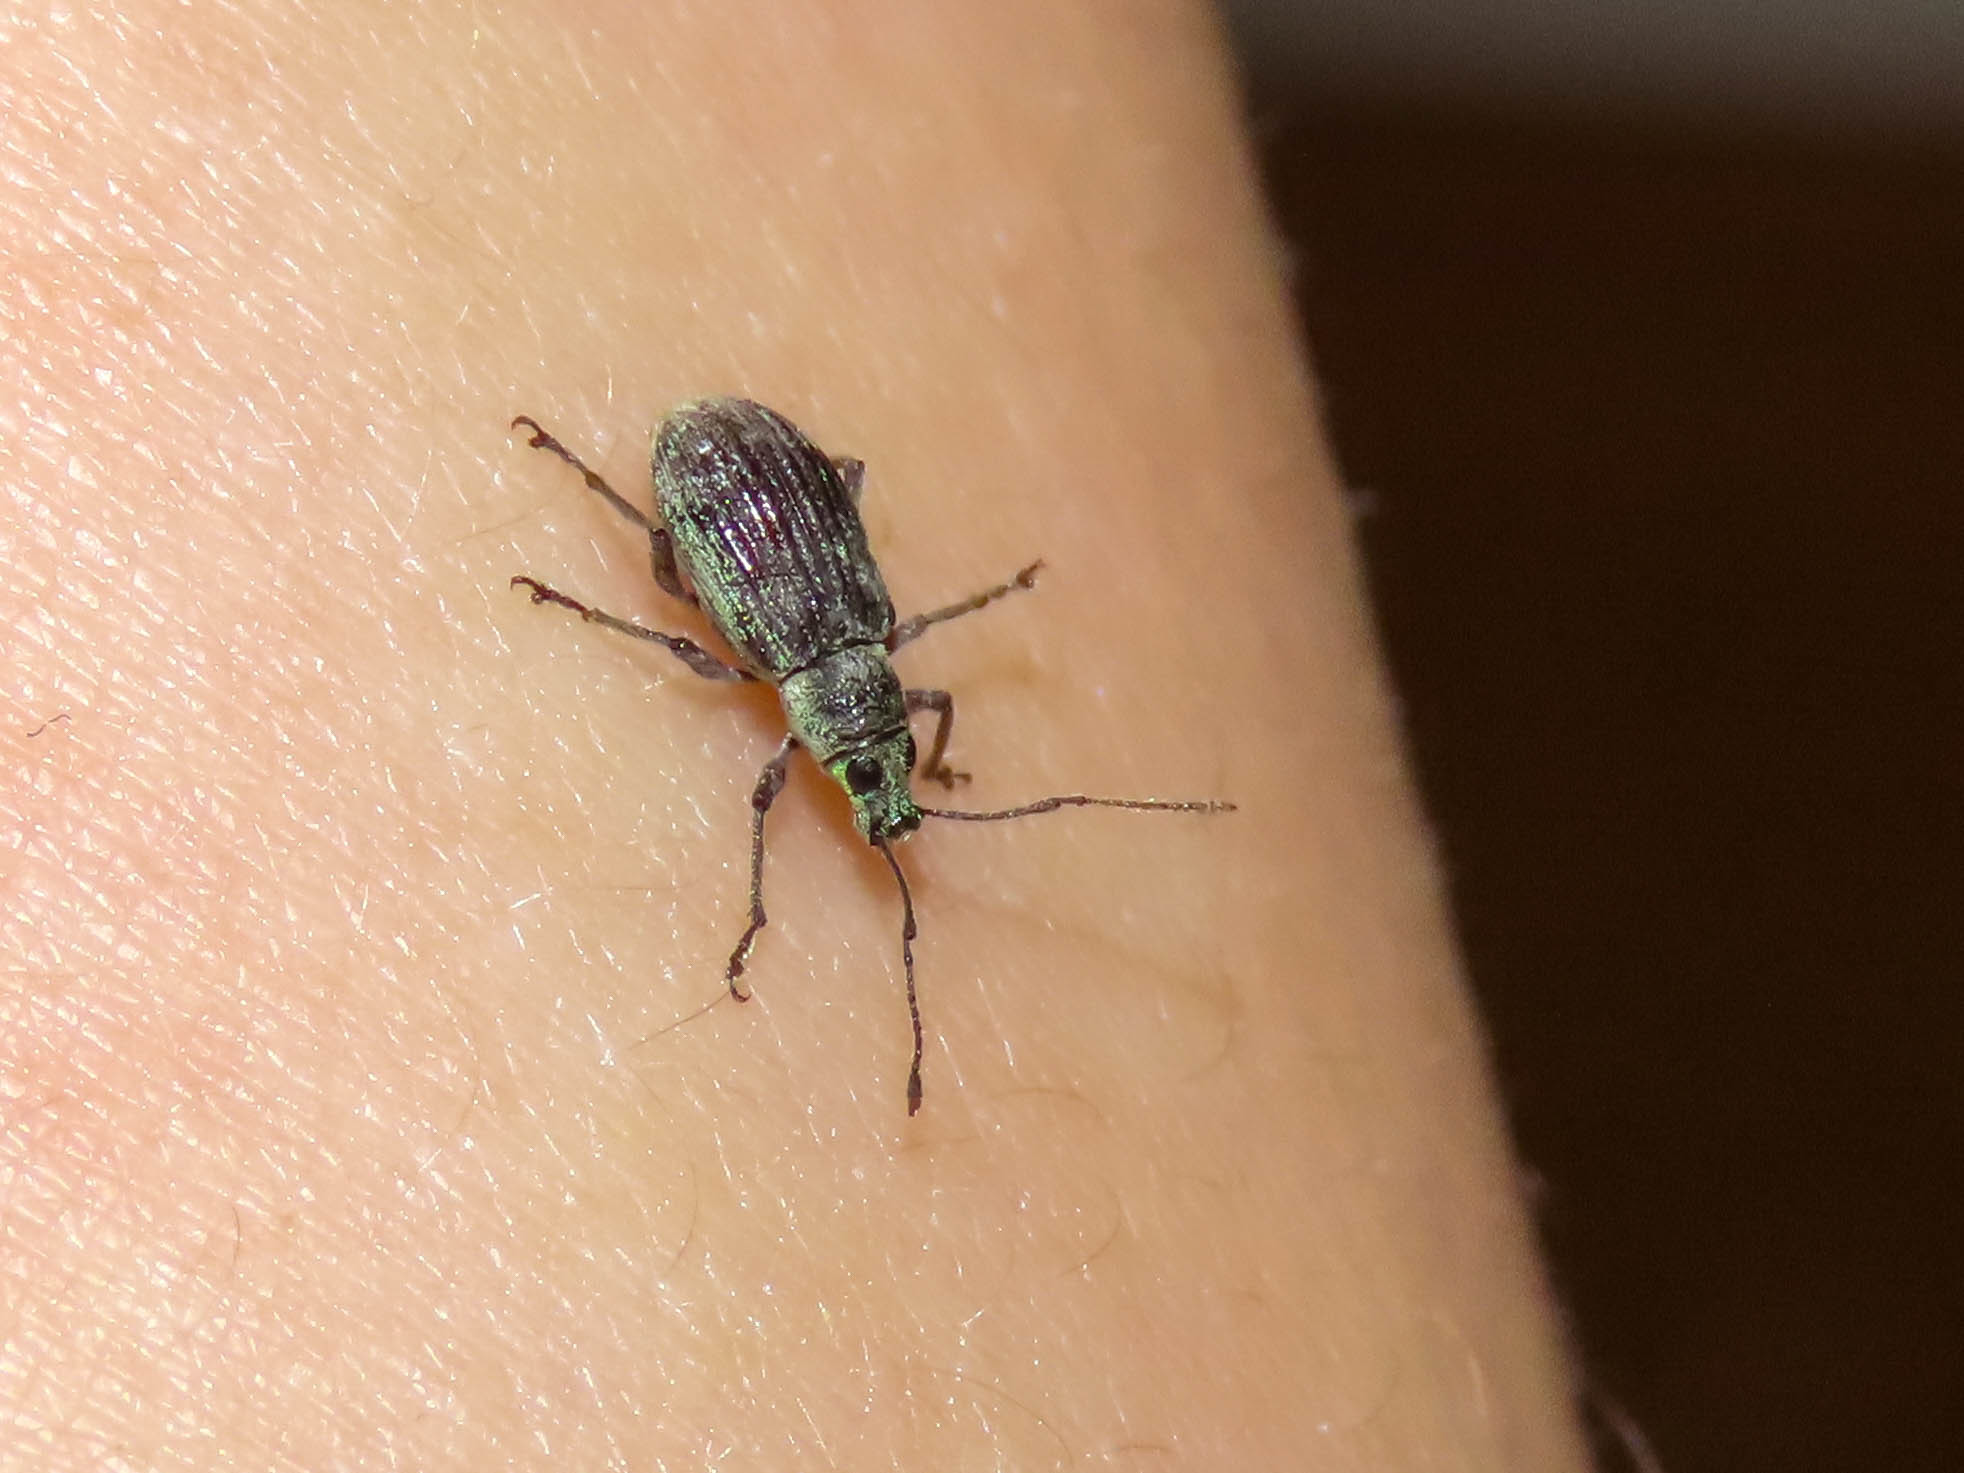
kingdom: Animalia
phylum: Arthropoda
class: Insecta
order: Coleoptera
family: Curculionidae
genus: Cyrtepistomus
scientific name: Cyrtepistomus castaneus
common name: Weevil
